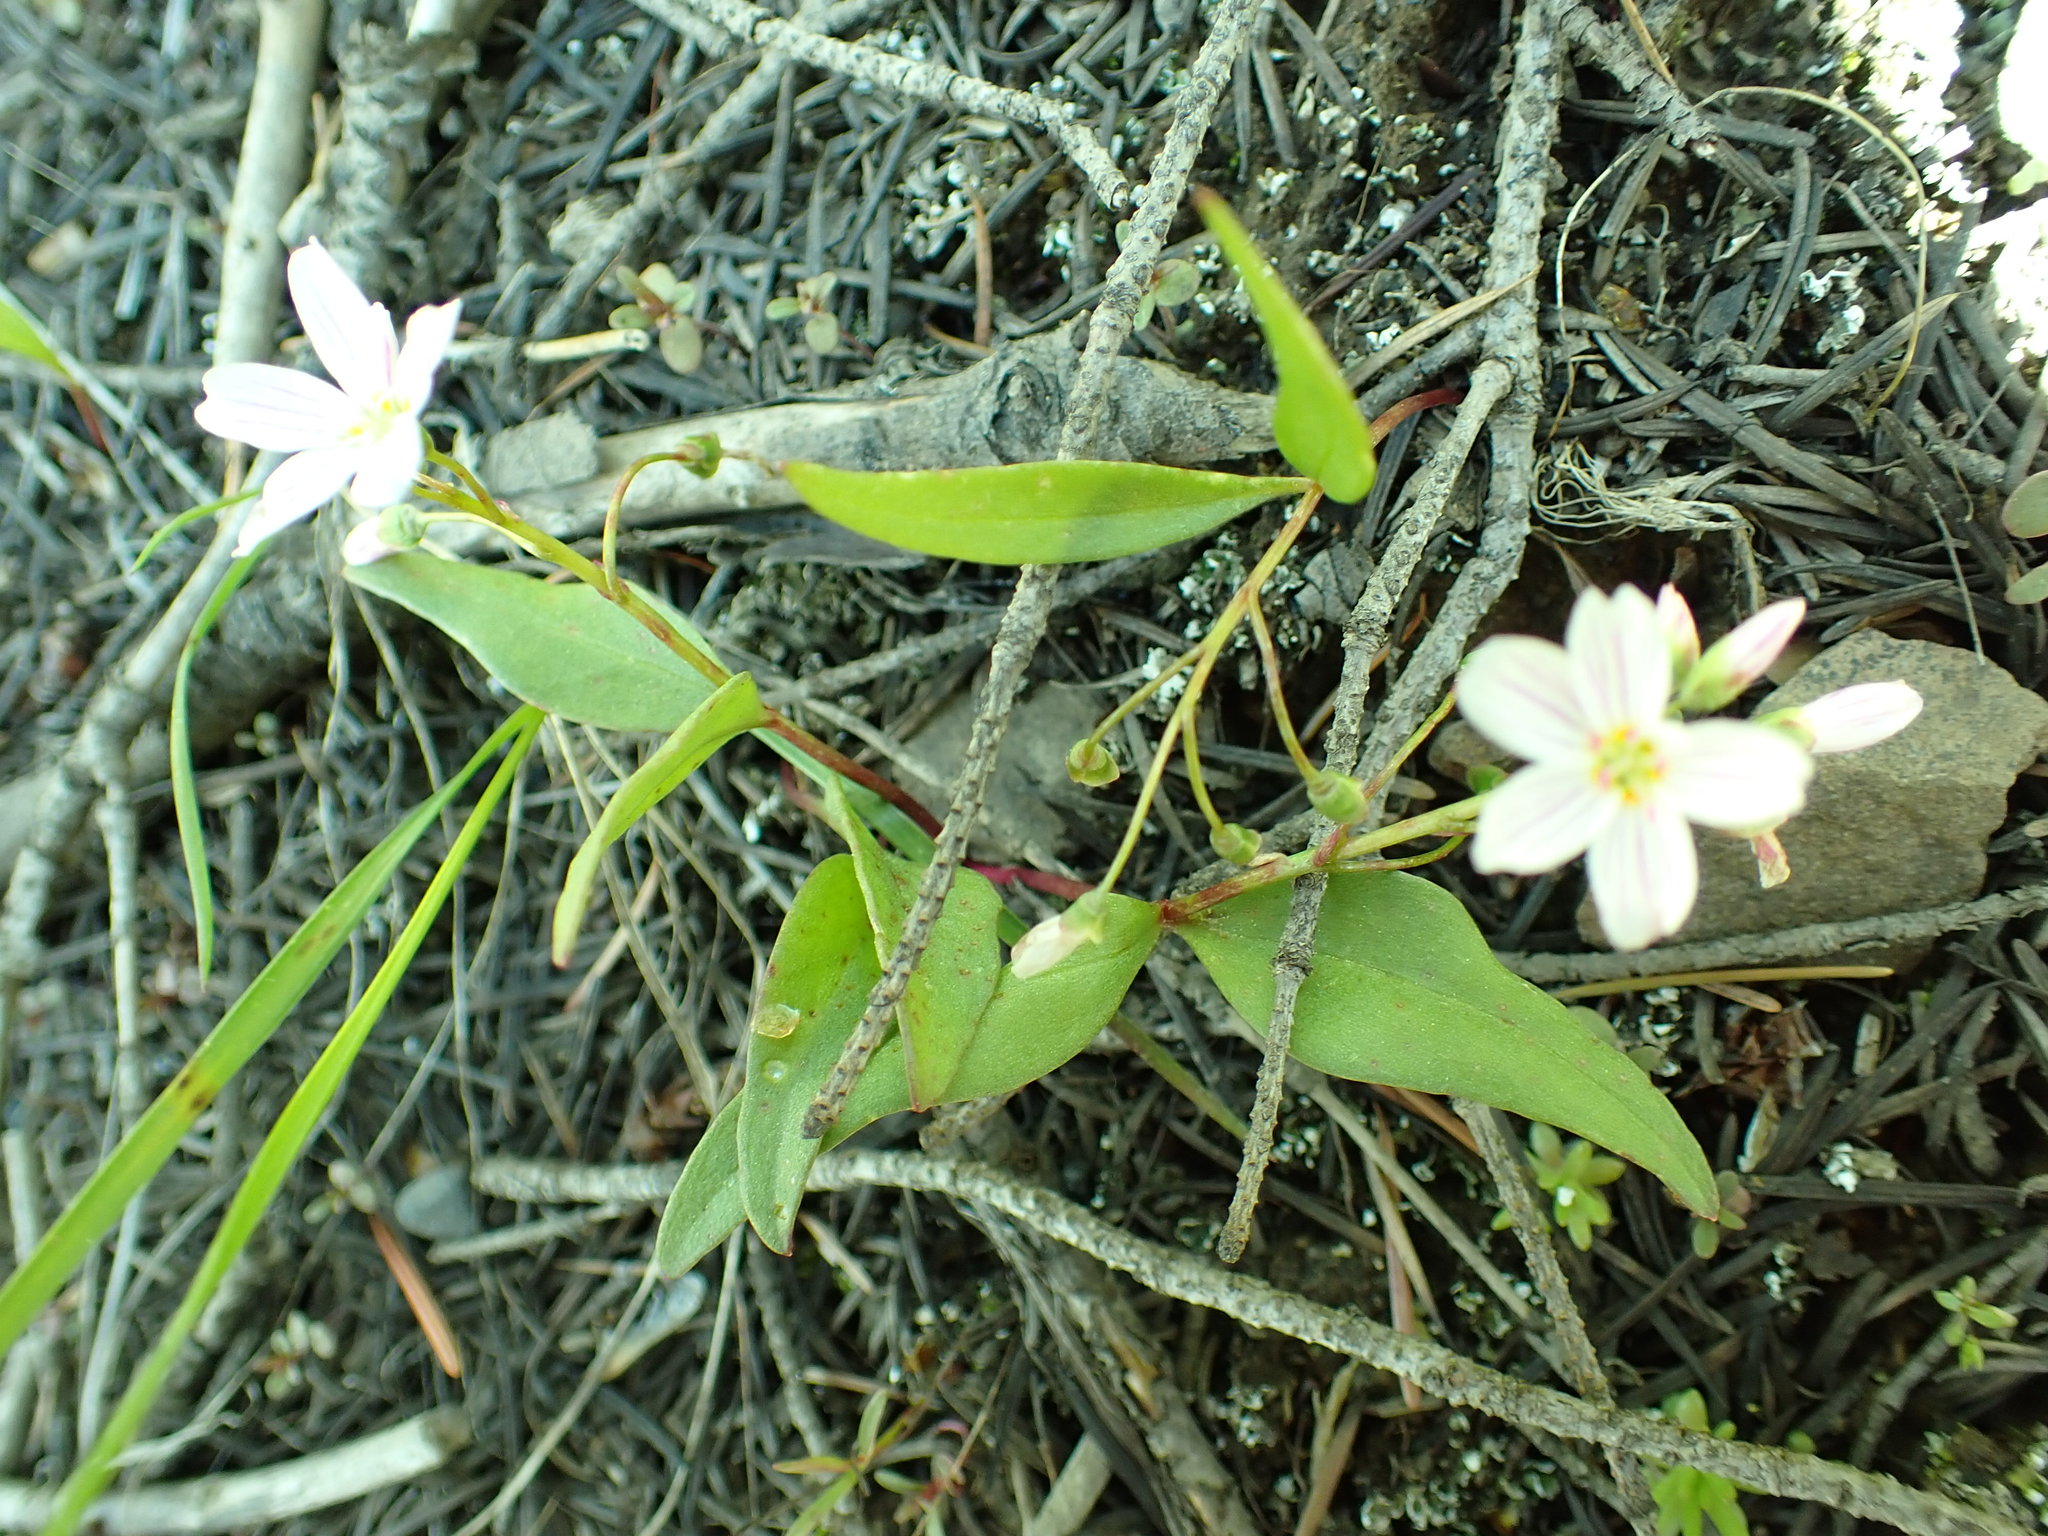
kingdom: Plantae
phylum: Tracheophyta
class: Magnoliopsida
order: Caryophyllales
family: Montiaceae
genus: Claytonia
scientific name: Claytonia lanceolata
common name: Western spring-beauty
